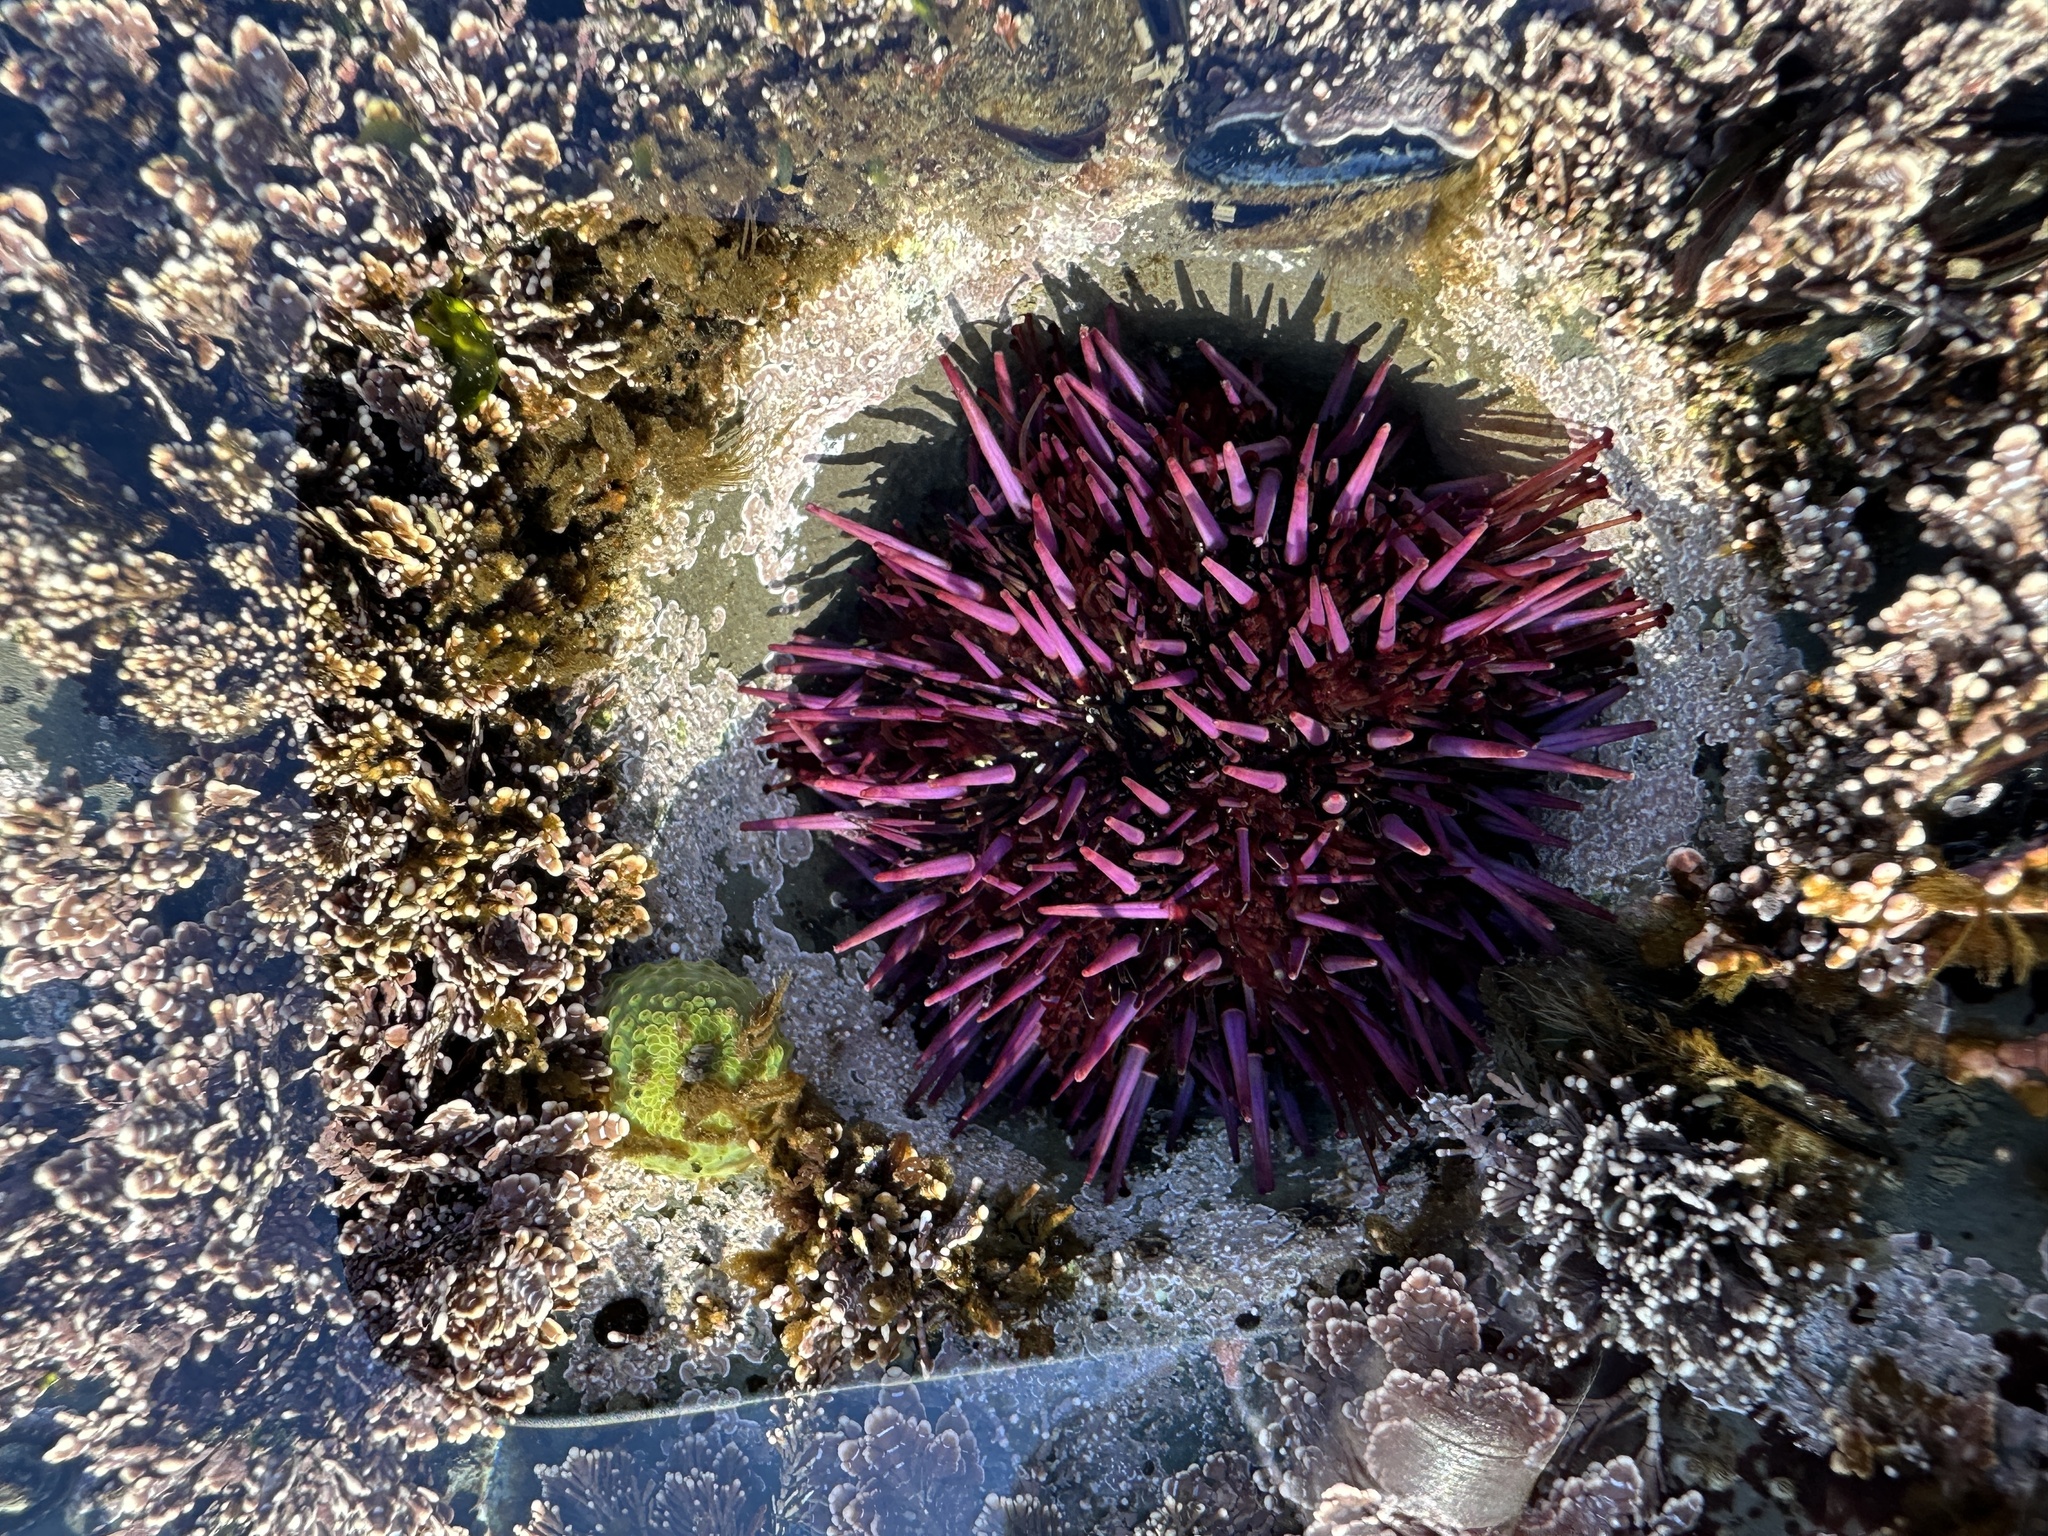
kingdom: Animalia
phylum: Echinodermata
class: Echinoidea
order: Camarodonta
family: Strongylocentrotidae
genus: Strongylocentrotus
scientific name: Strongylocentrotus purpuratus
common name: Purple sea urchin
